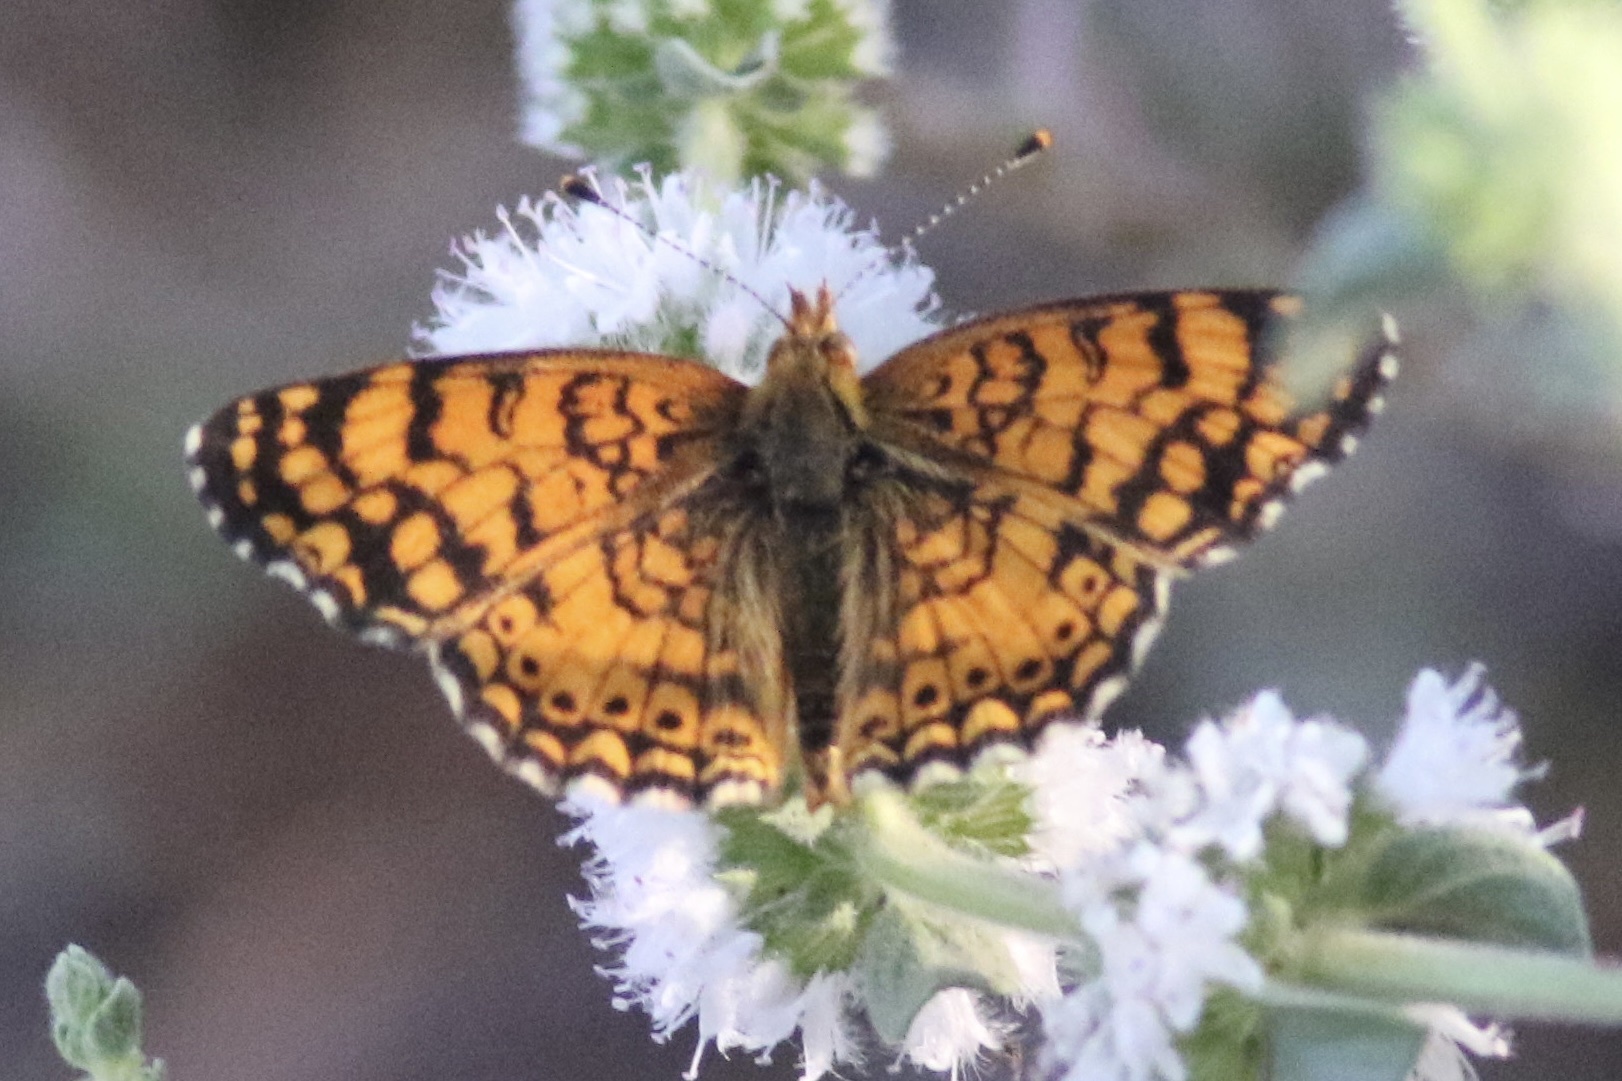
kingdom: Animalia
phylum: Arthropoda
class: Insecta
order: Lepidoptera
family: Nymphalidae
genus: Eresia
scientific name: Eresia aveyrona
